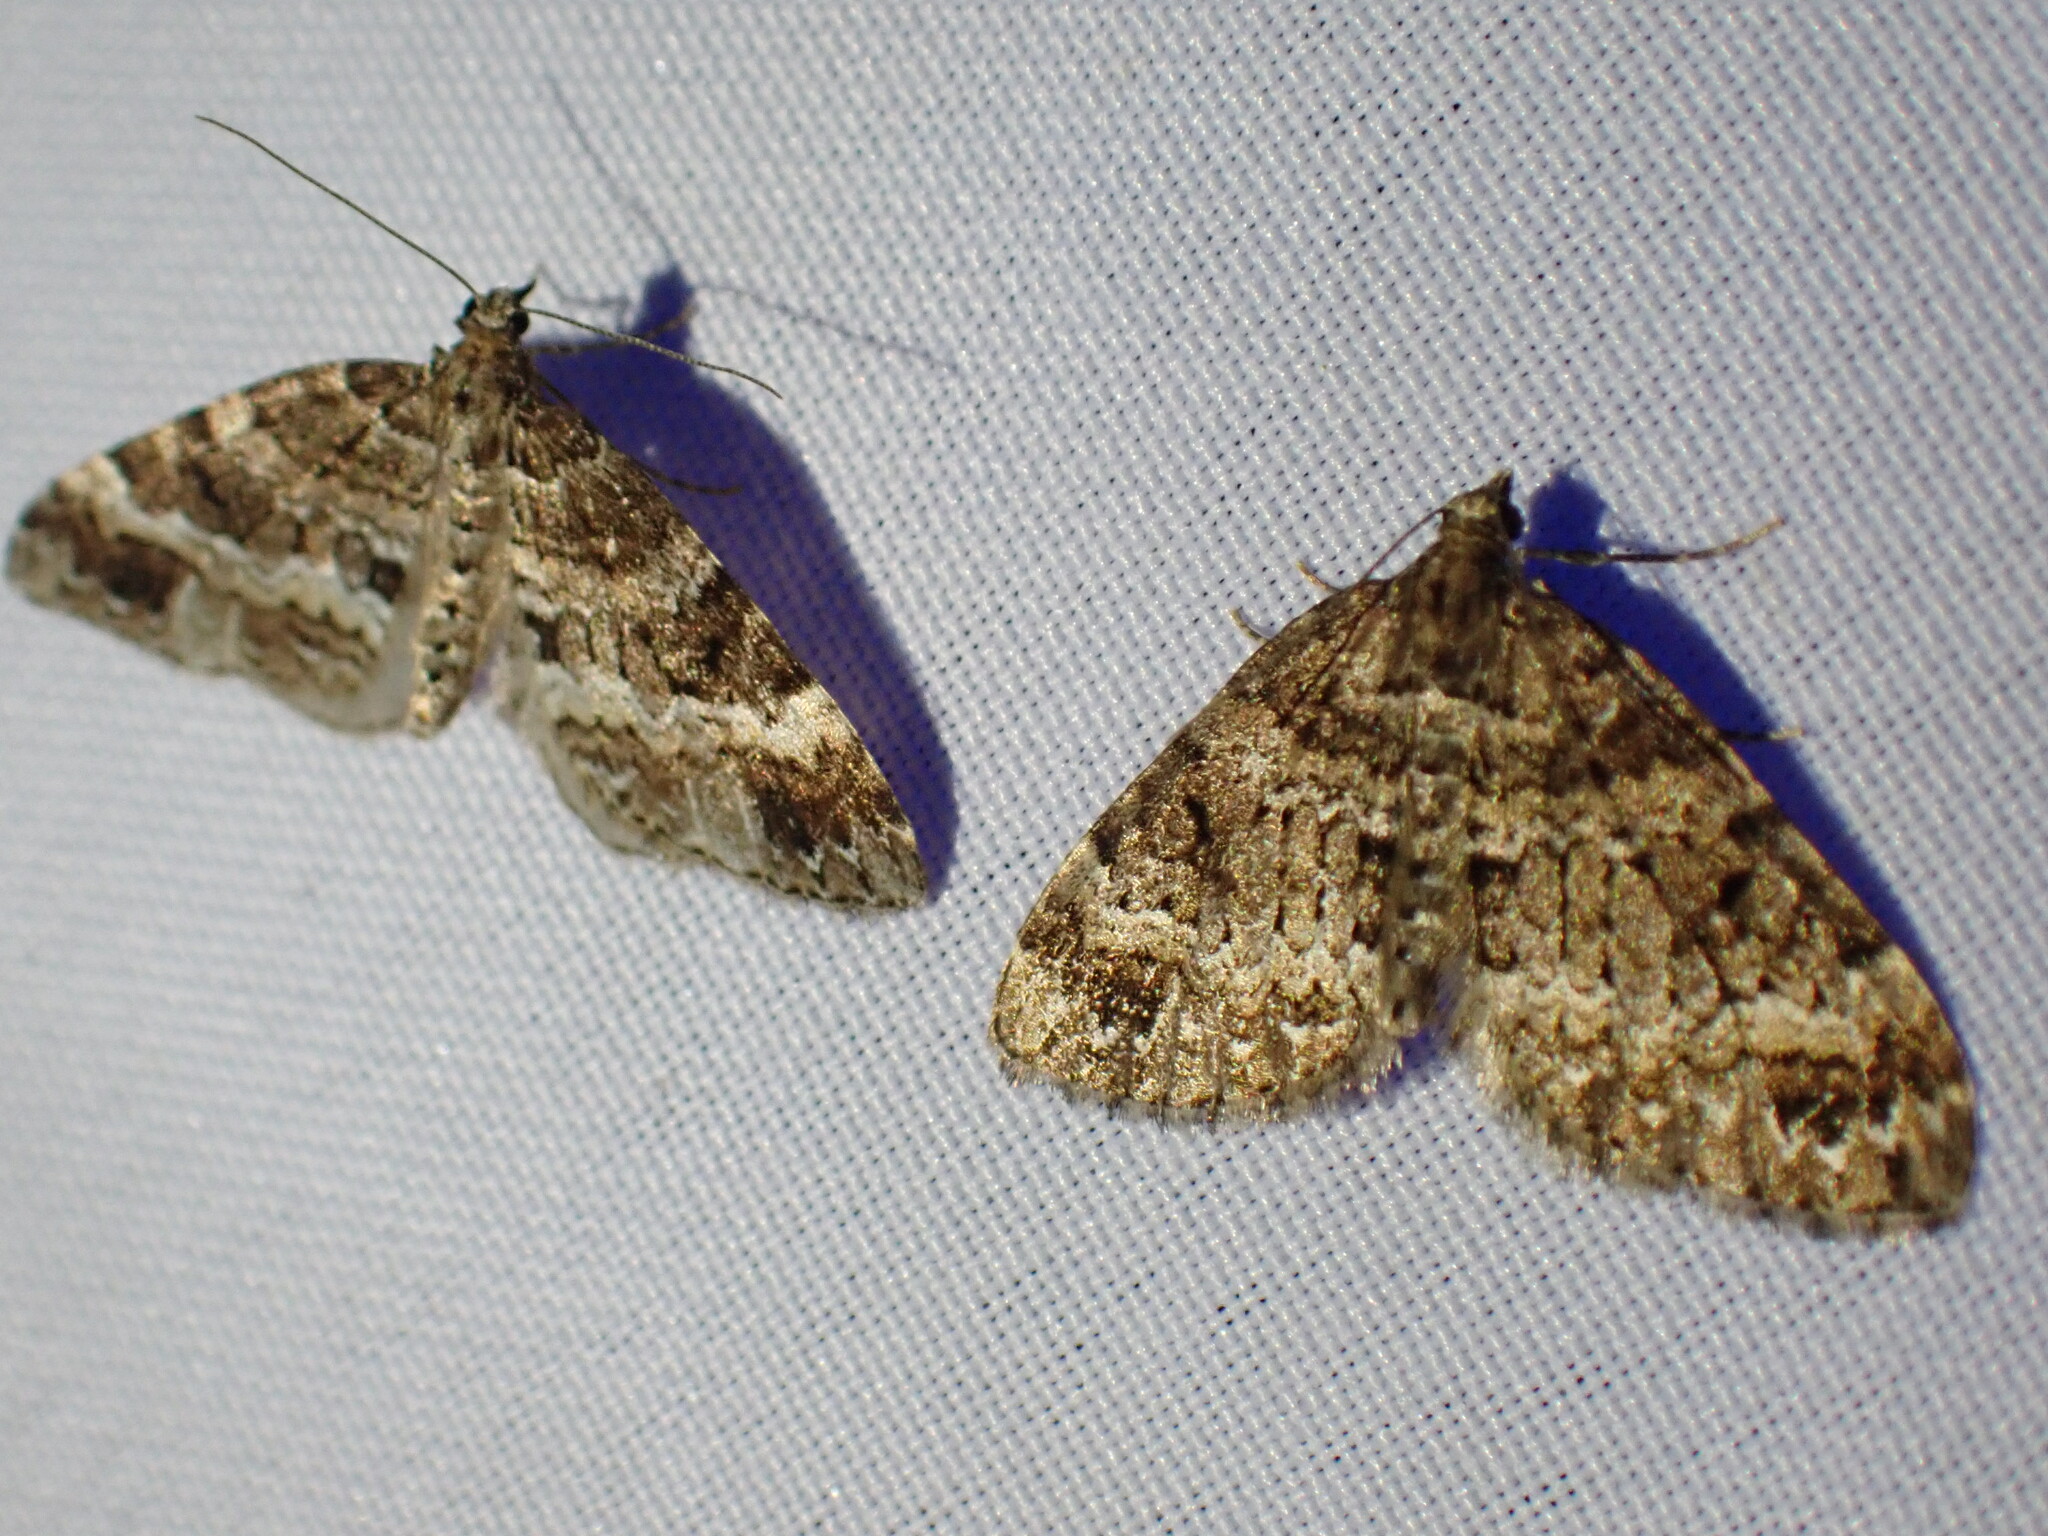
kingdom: Animalia
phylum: Arthropoda
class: Insecta
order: Lepidoptera
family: Geometridae
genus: Martania
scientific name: Martania
